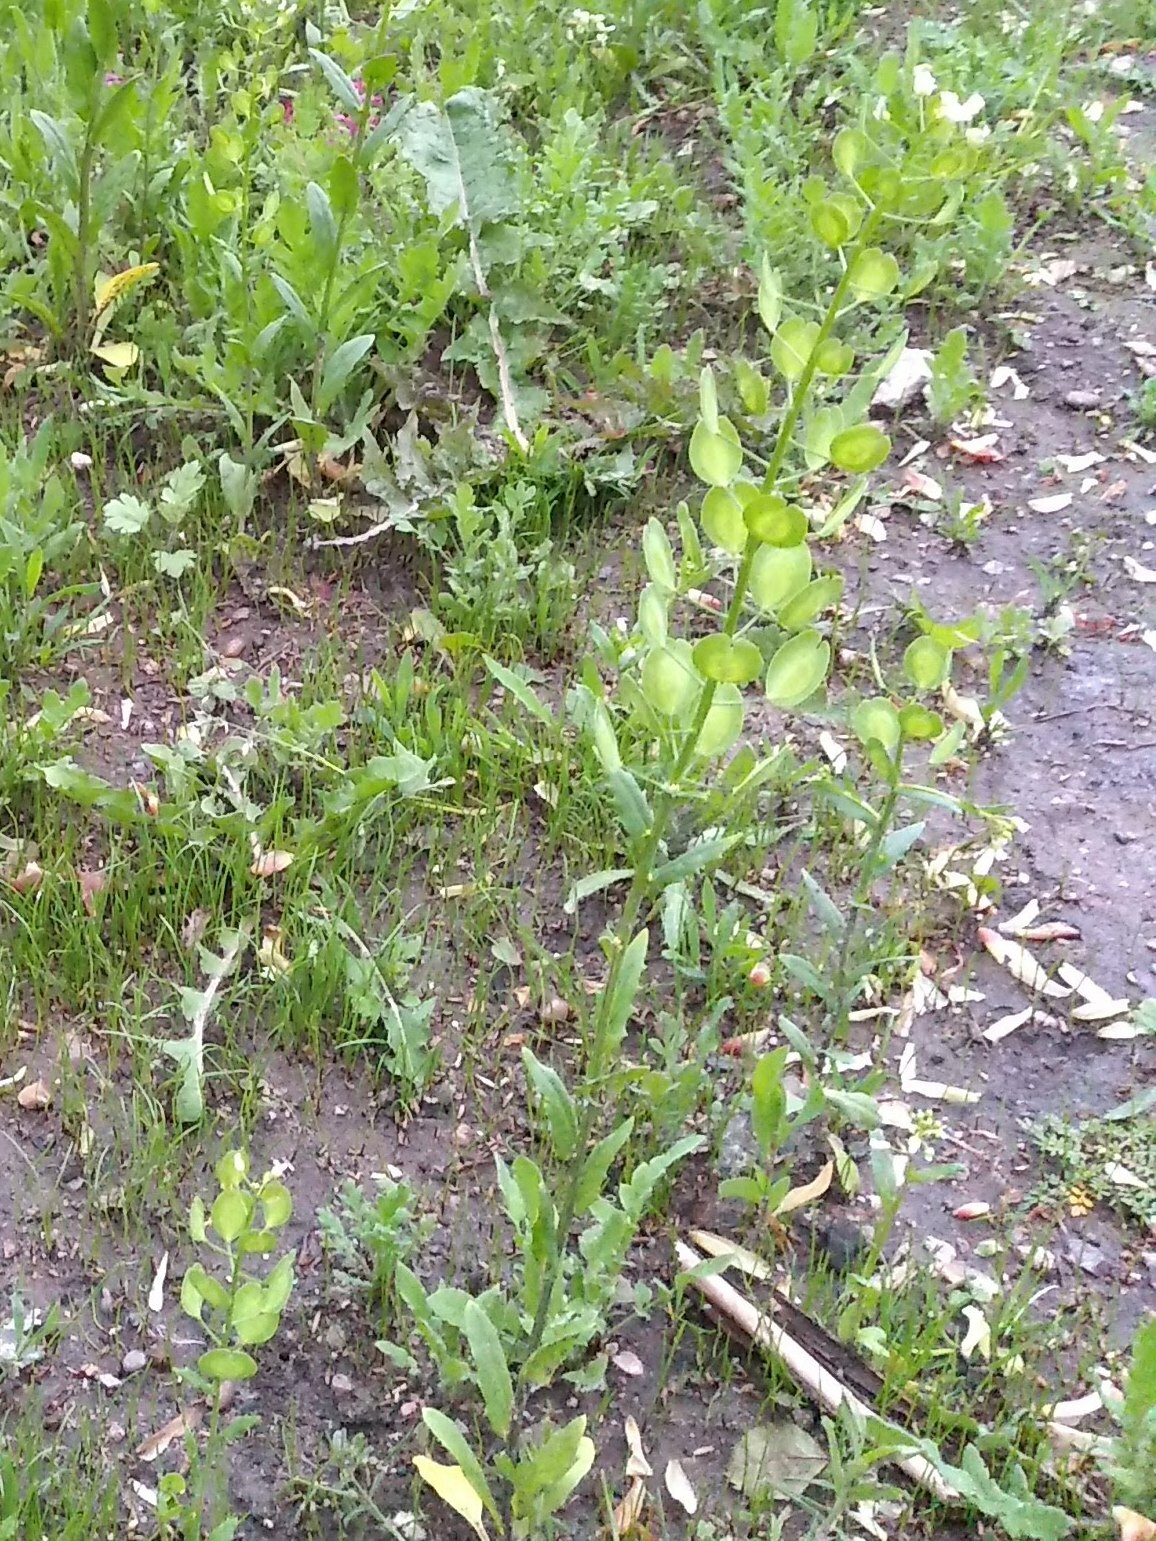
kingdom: Plantae
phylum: Tracheophyta
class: Magnoliopsida
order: Brassicales
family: Brassicaceae
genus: Thlaspi
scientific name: Thlaspi arvense
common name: Field pennycress
